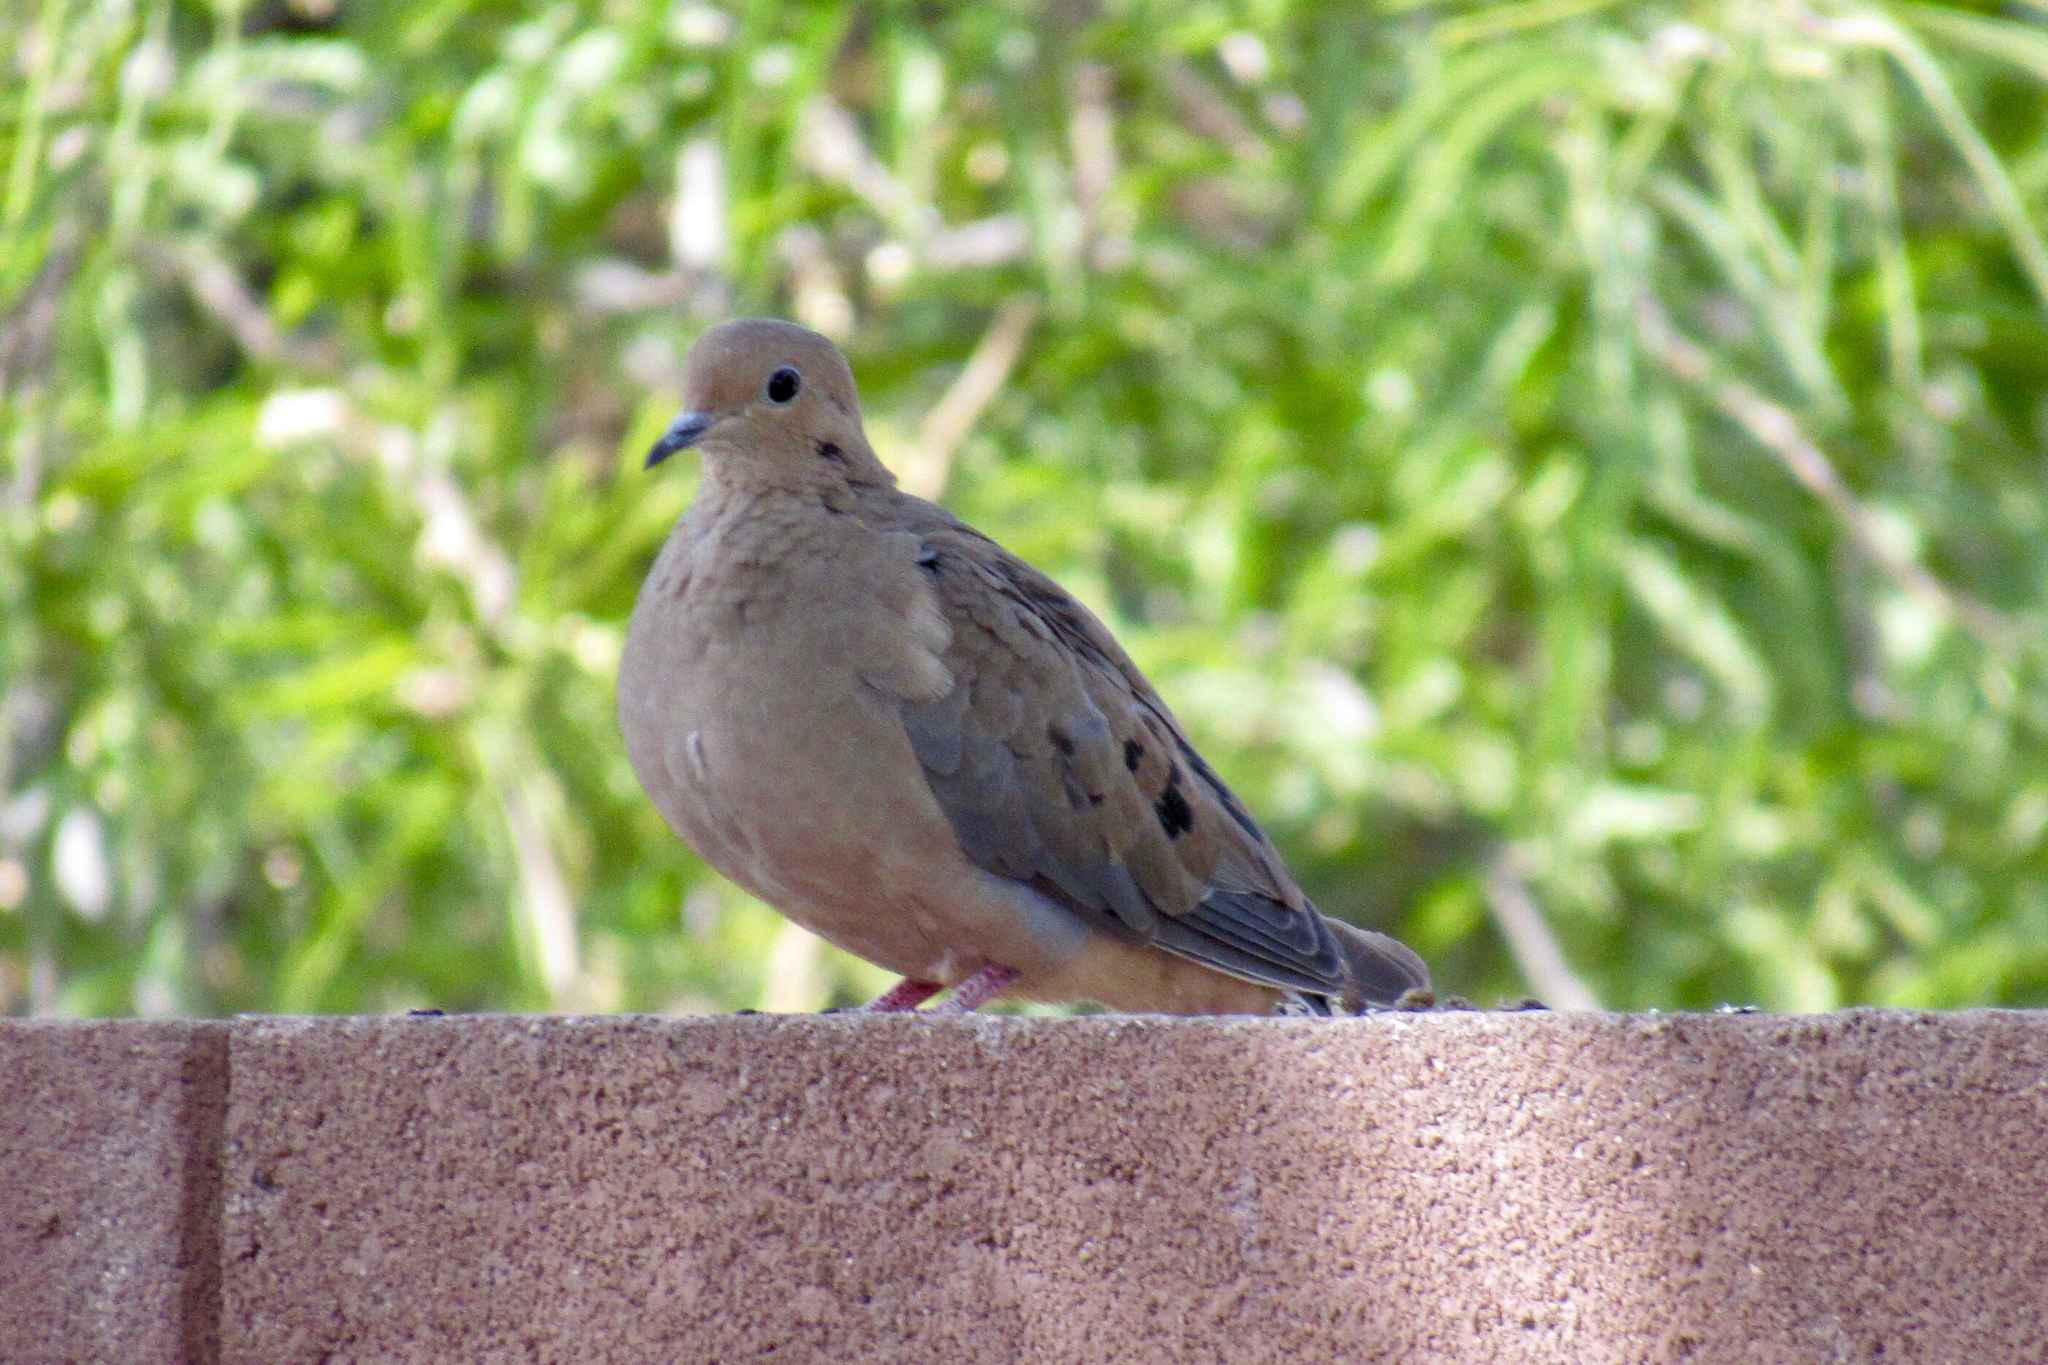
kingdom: Animalia
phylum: Chordata
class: Aves
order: Columbiformes
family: Columbidae
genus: Zenaida
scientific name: Zenaida macroura
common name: Mourning dove
